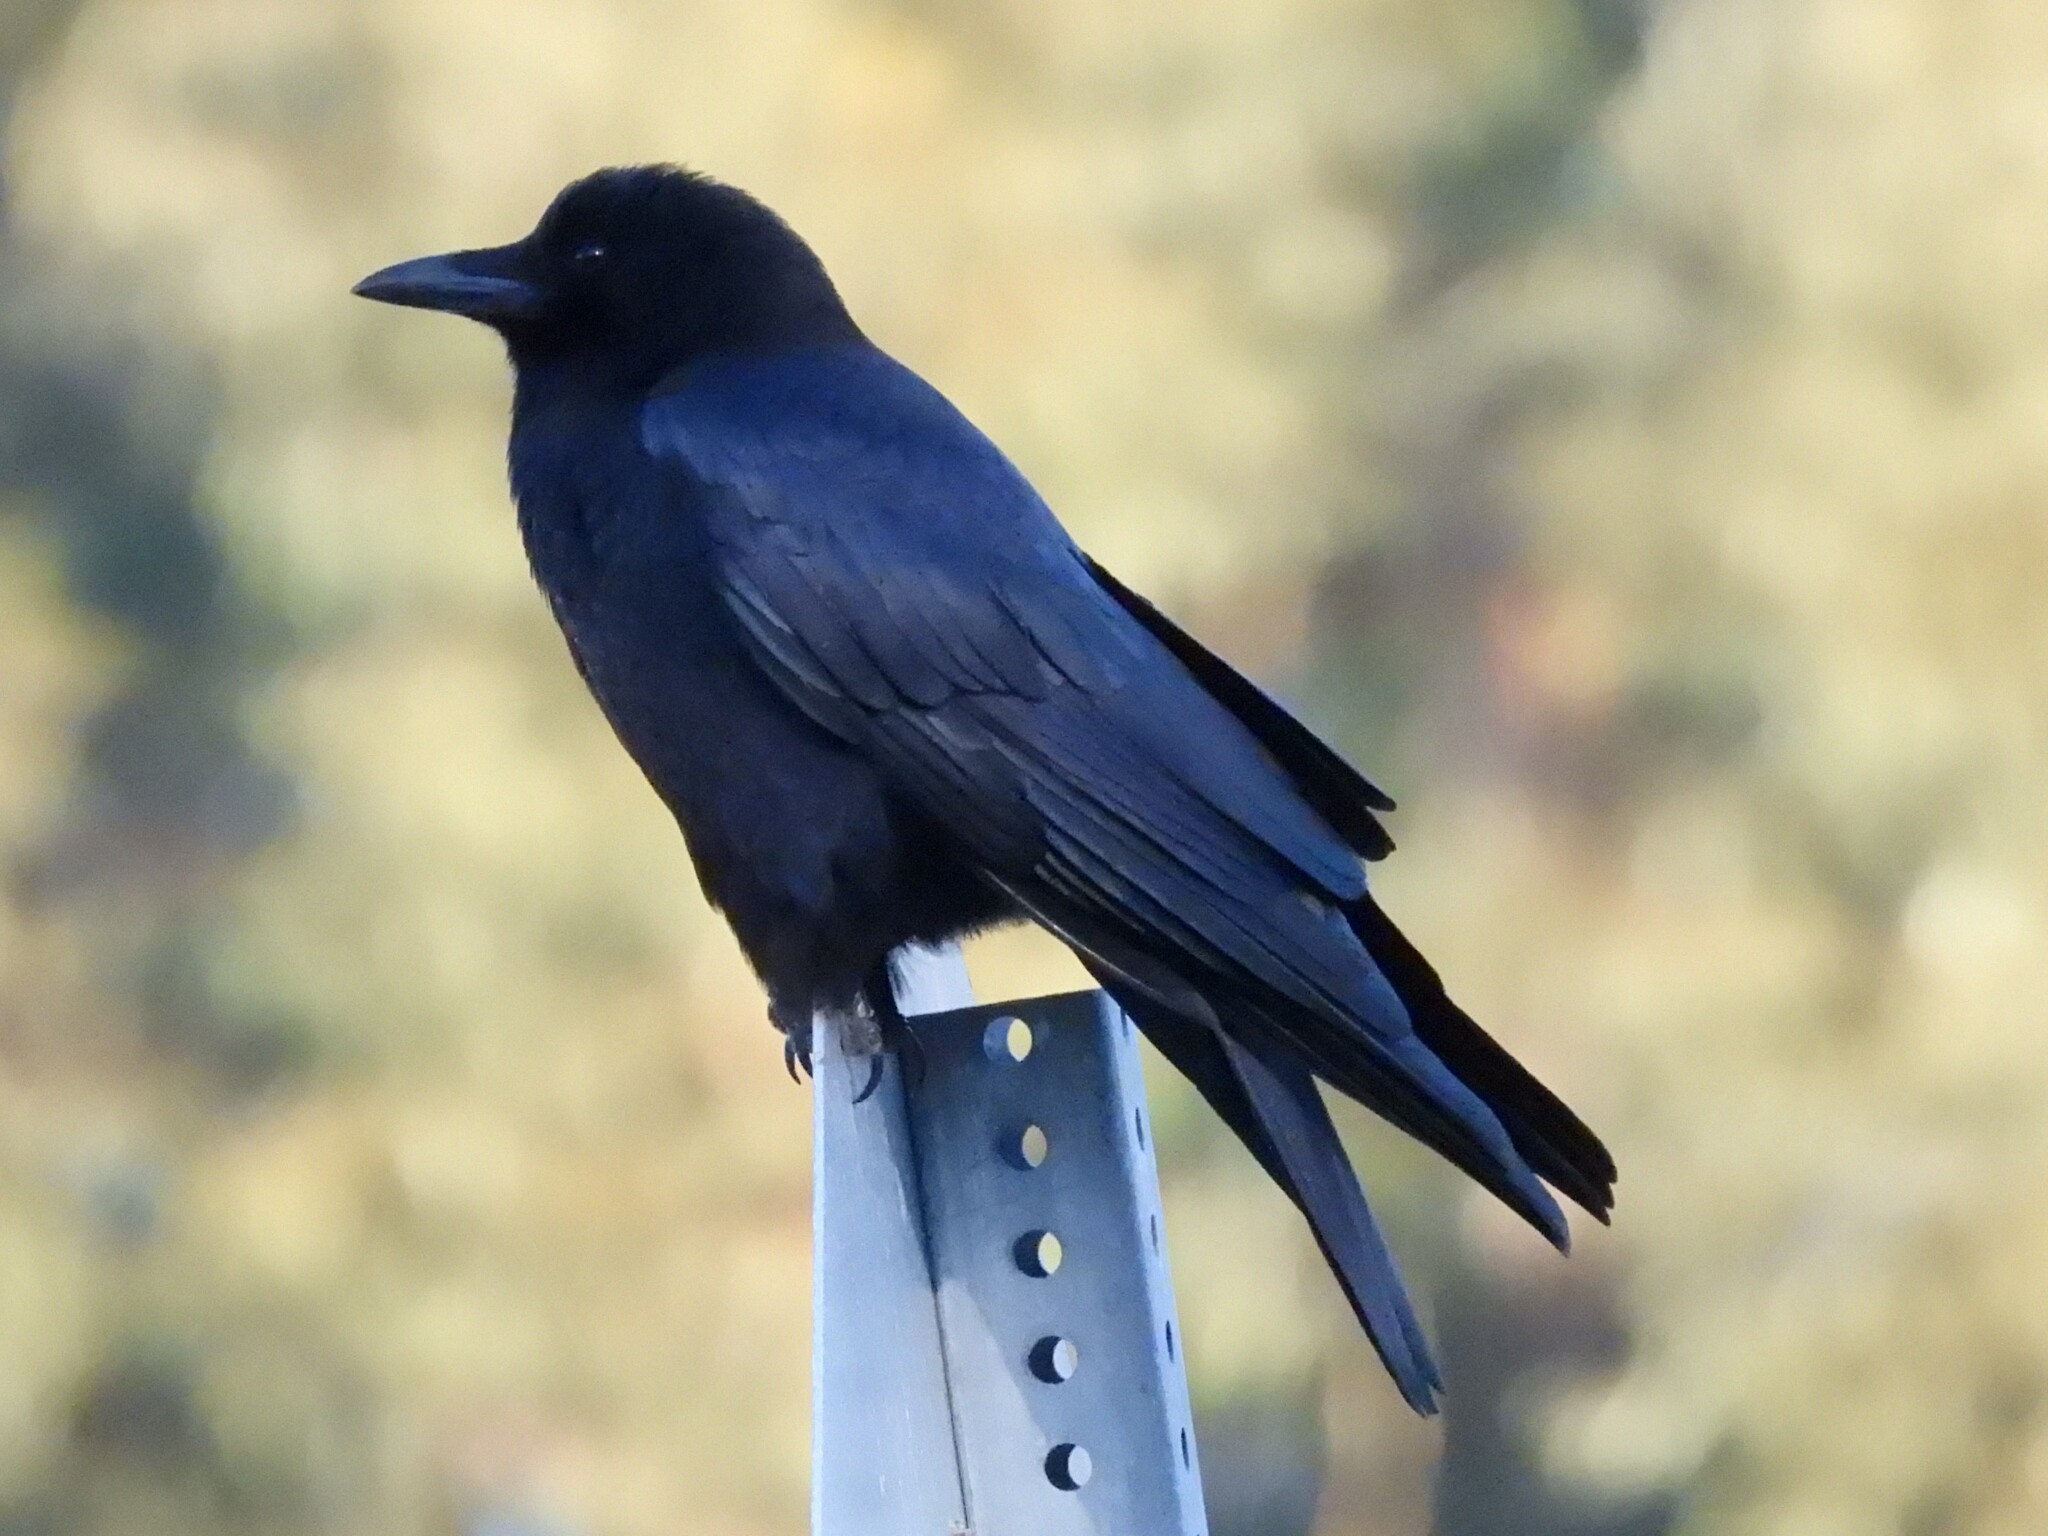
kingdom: Animalia
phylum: Chordata
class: Aves
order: Passeriformes
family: Corvidae
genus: Corvus
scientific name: Corvus brachyrhynchos
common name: American crow
